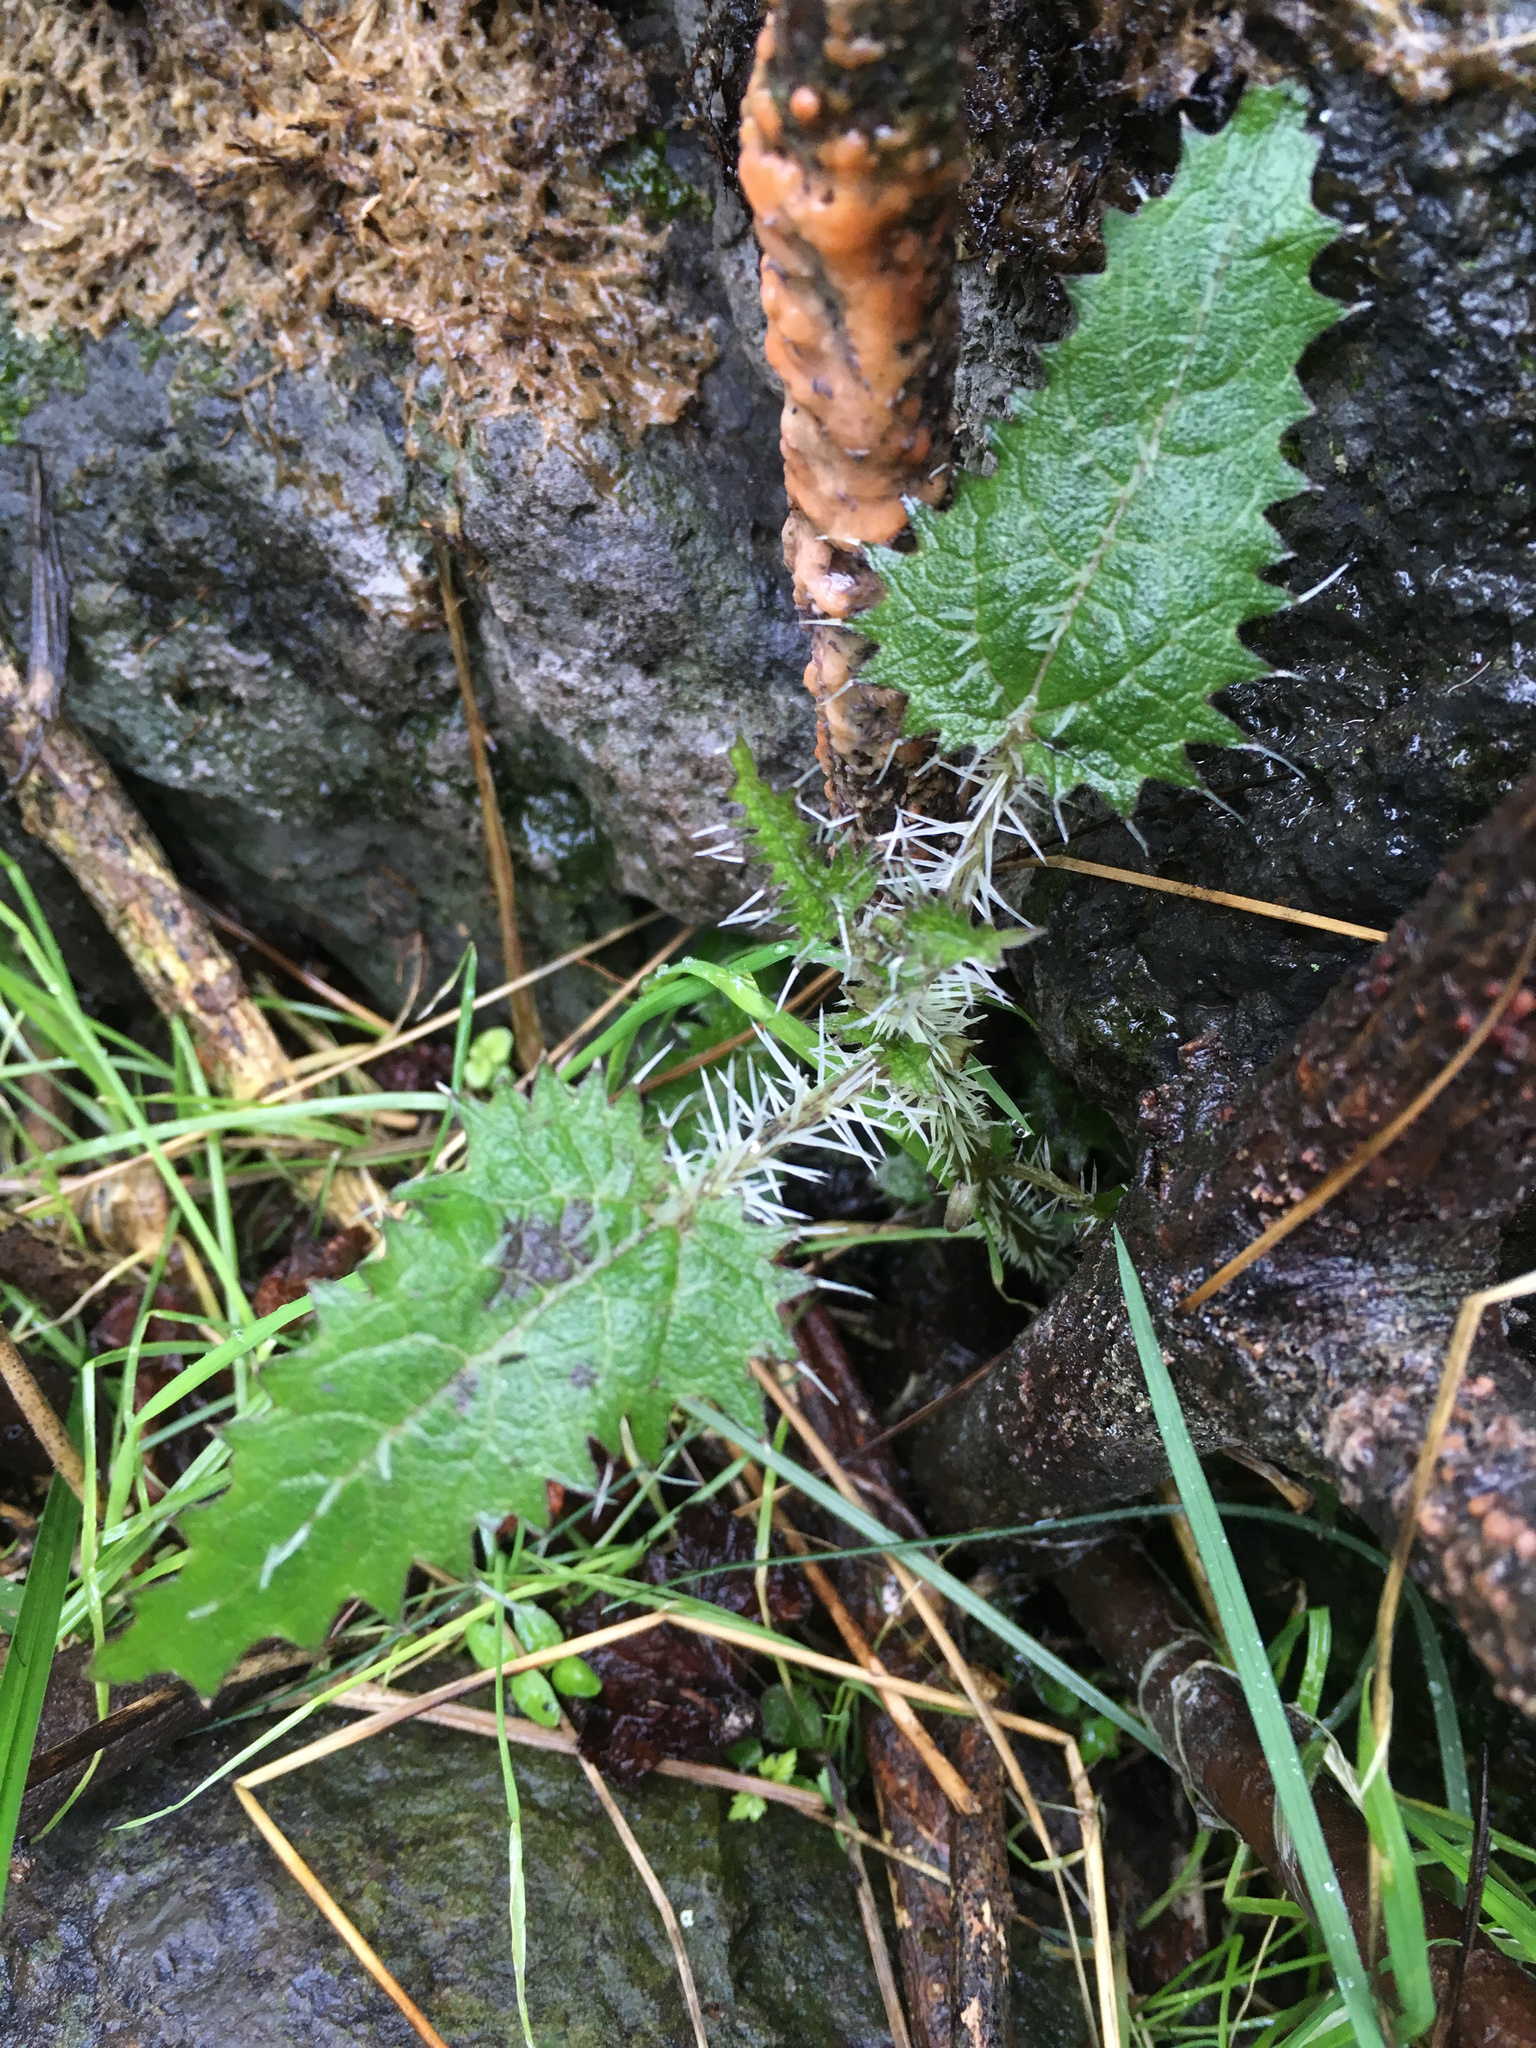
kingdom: Plantae
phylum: Tracheophyta
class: Magnoliopsida
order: Rosales
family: Urticaceae
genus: Urtica
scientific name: Urtica ferox
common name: Tree nettle
